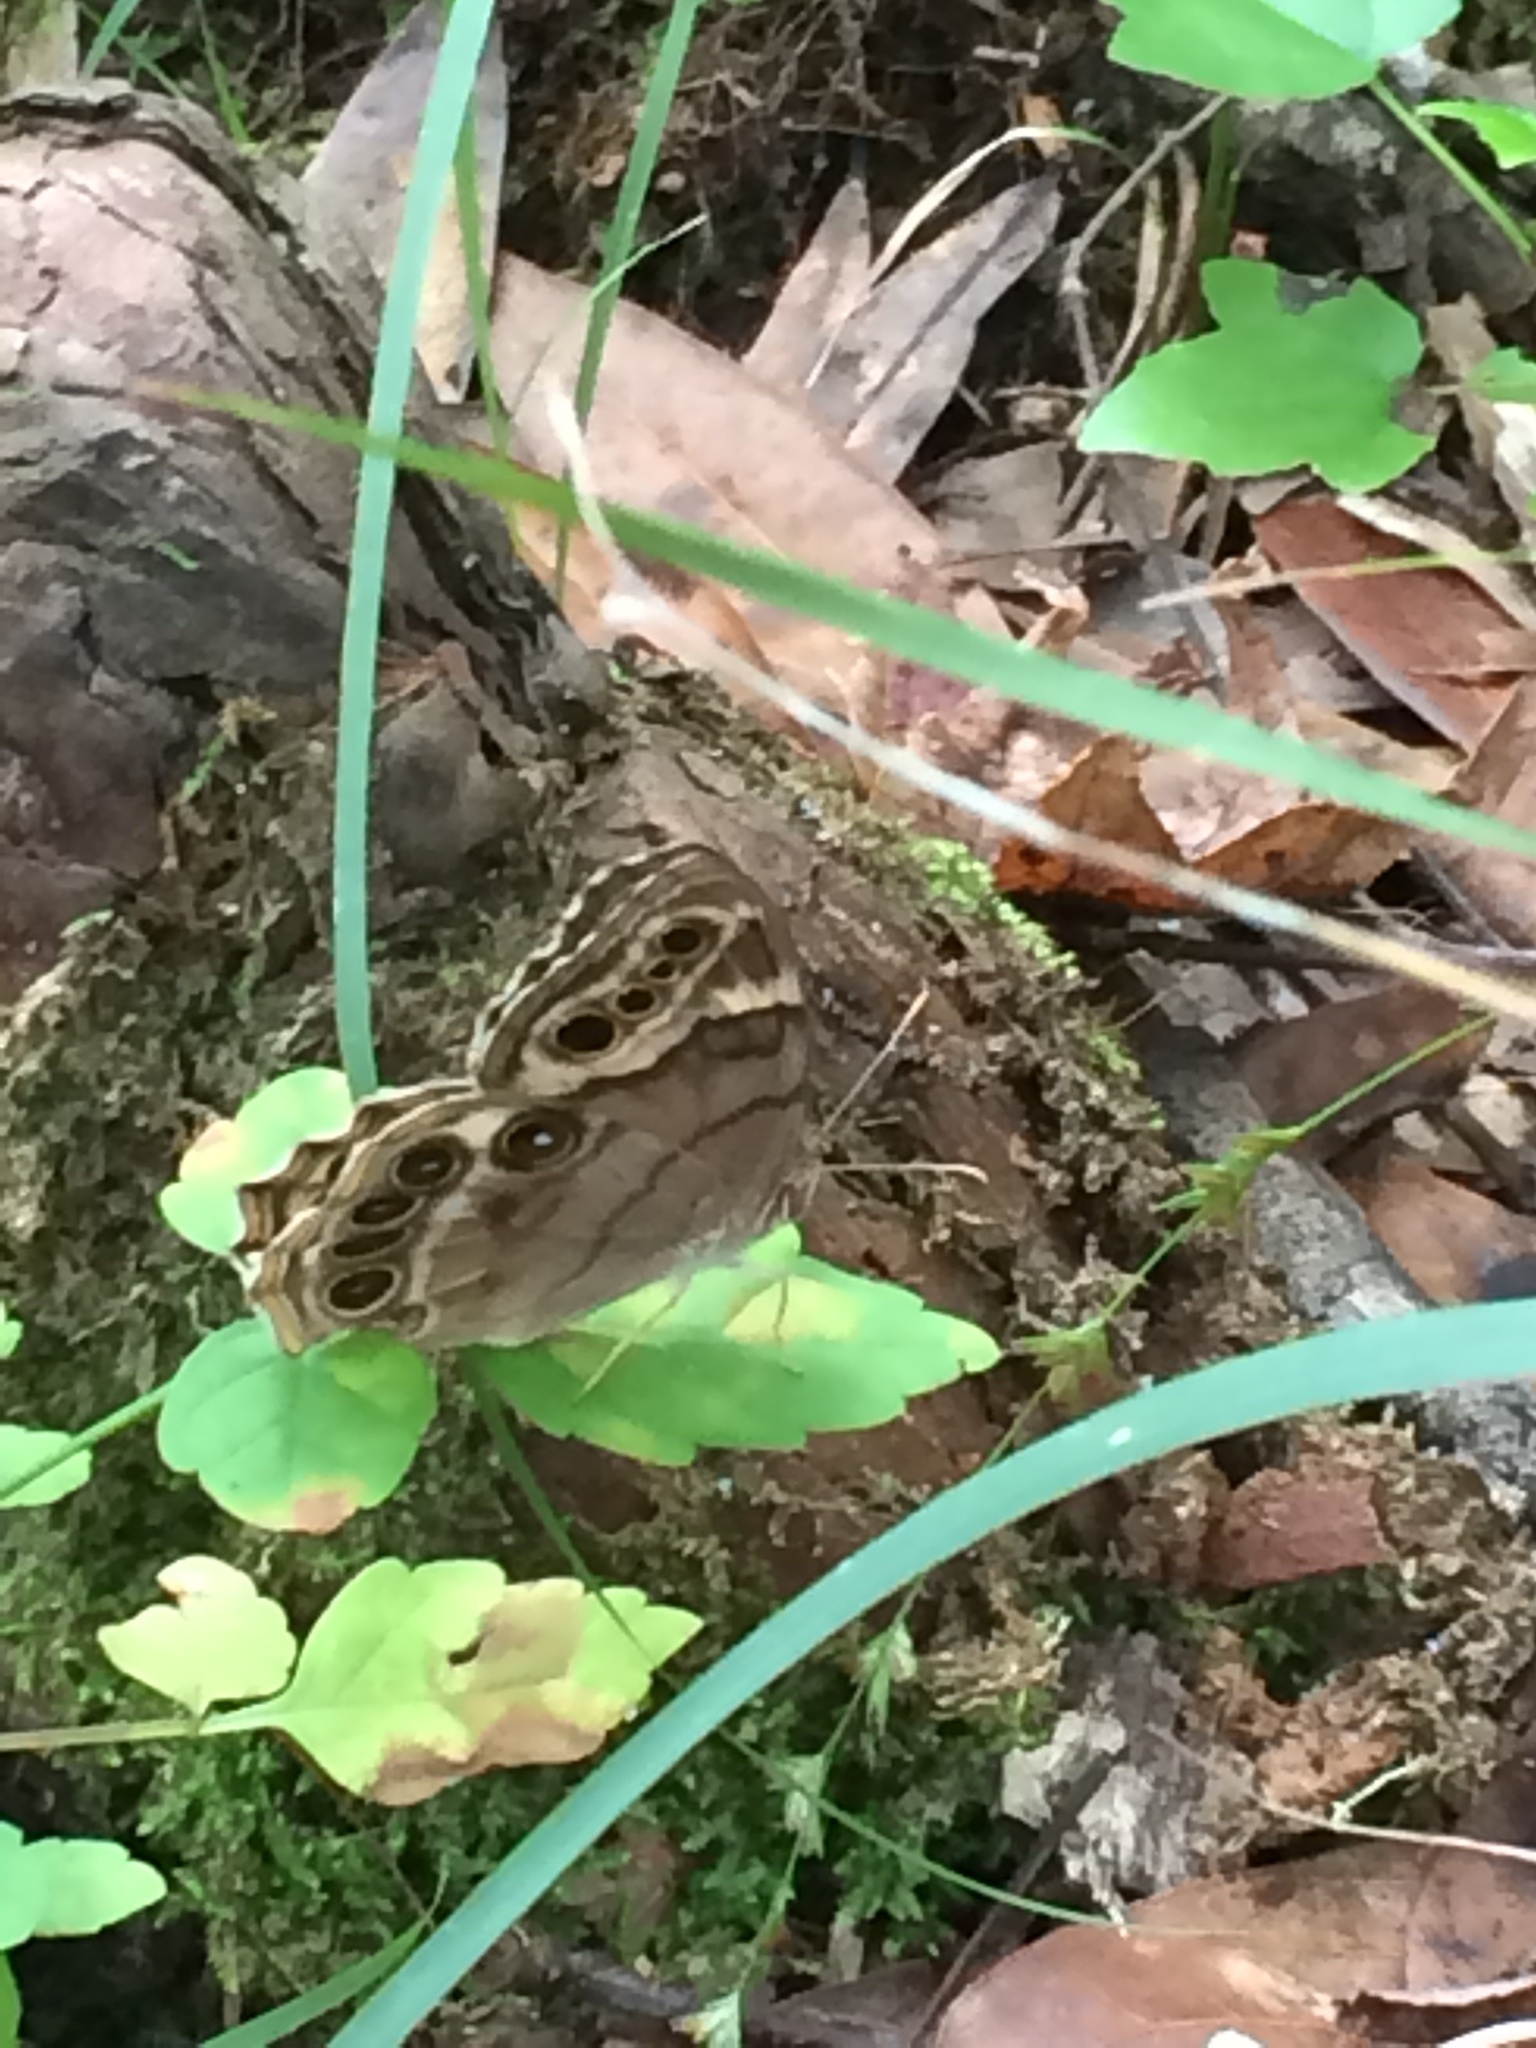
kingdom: Animalia
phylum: Arthropoda
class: Insecta
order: Lepidoptera
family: Nymphalidae
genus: Enodia
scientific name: Enodia portlandia
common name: Southern pearly-eye
